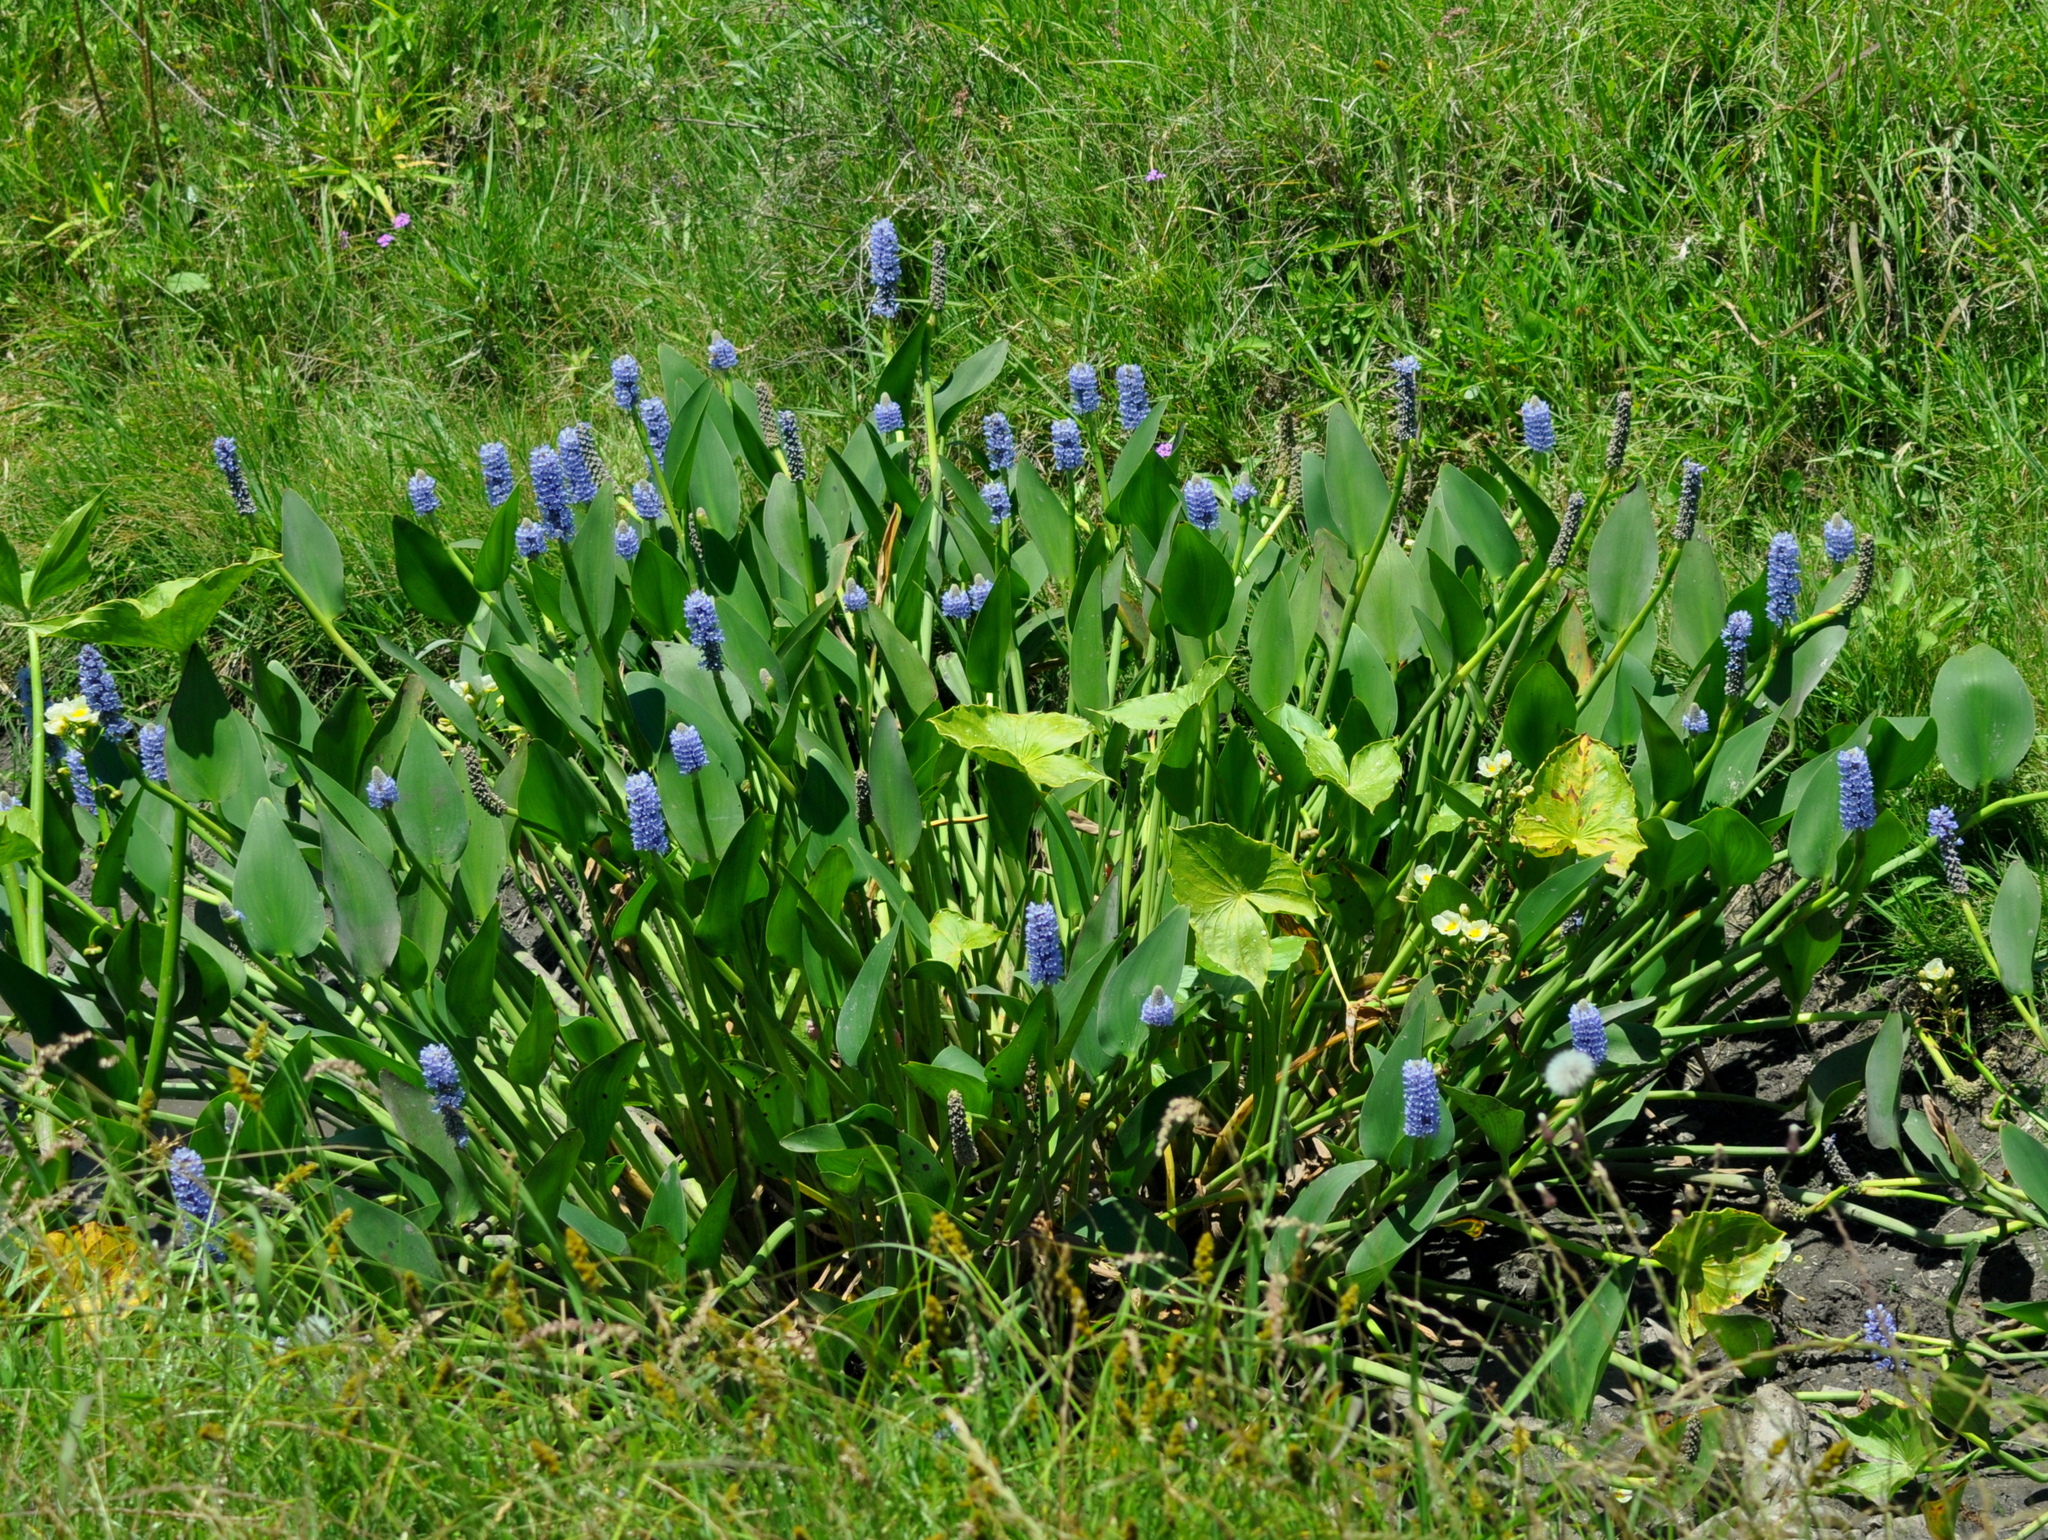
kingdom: Plantae
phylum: Tracheophyta
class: Liliopsida
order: Commelinales
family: Pontederiaceae
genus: Pontederia
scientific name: Pontederia cordata
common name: Pickerelweed
